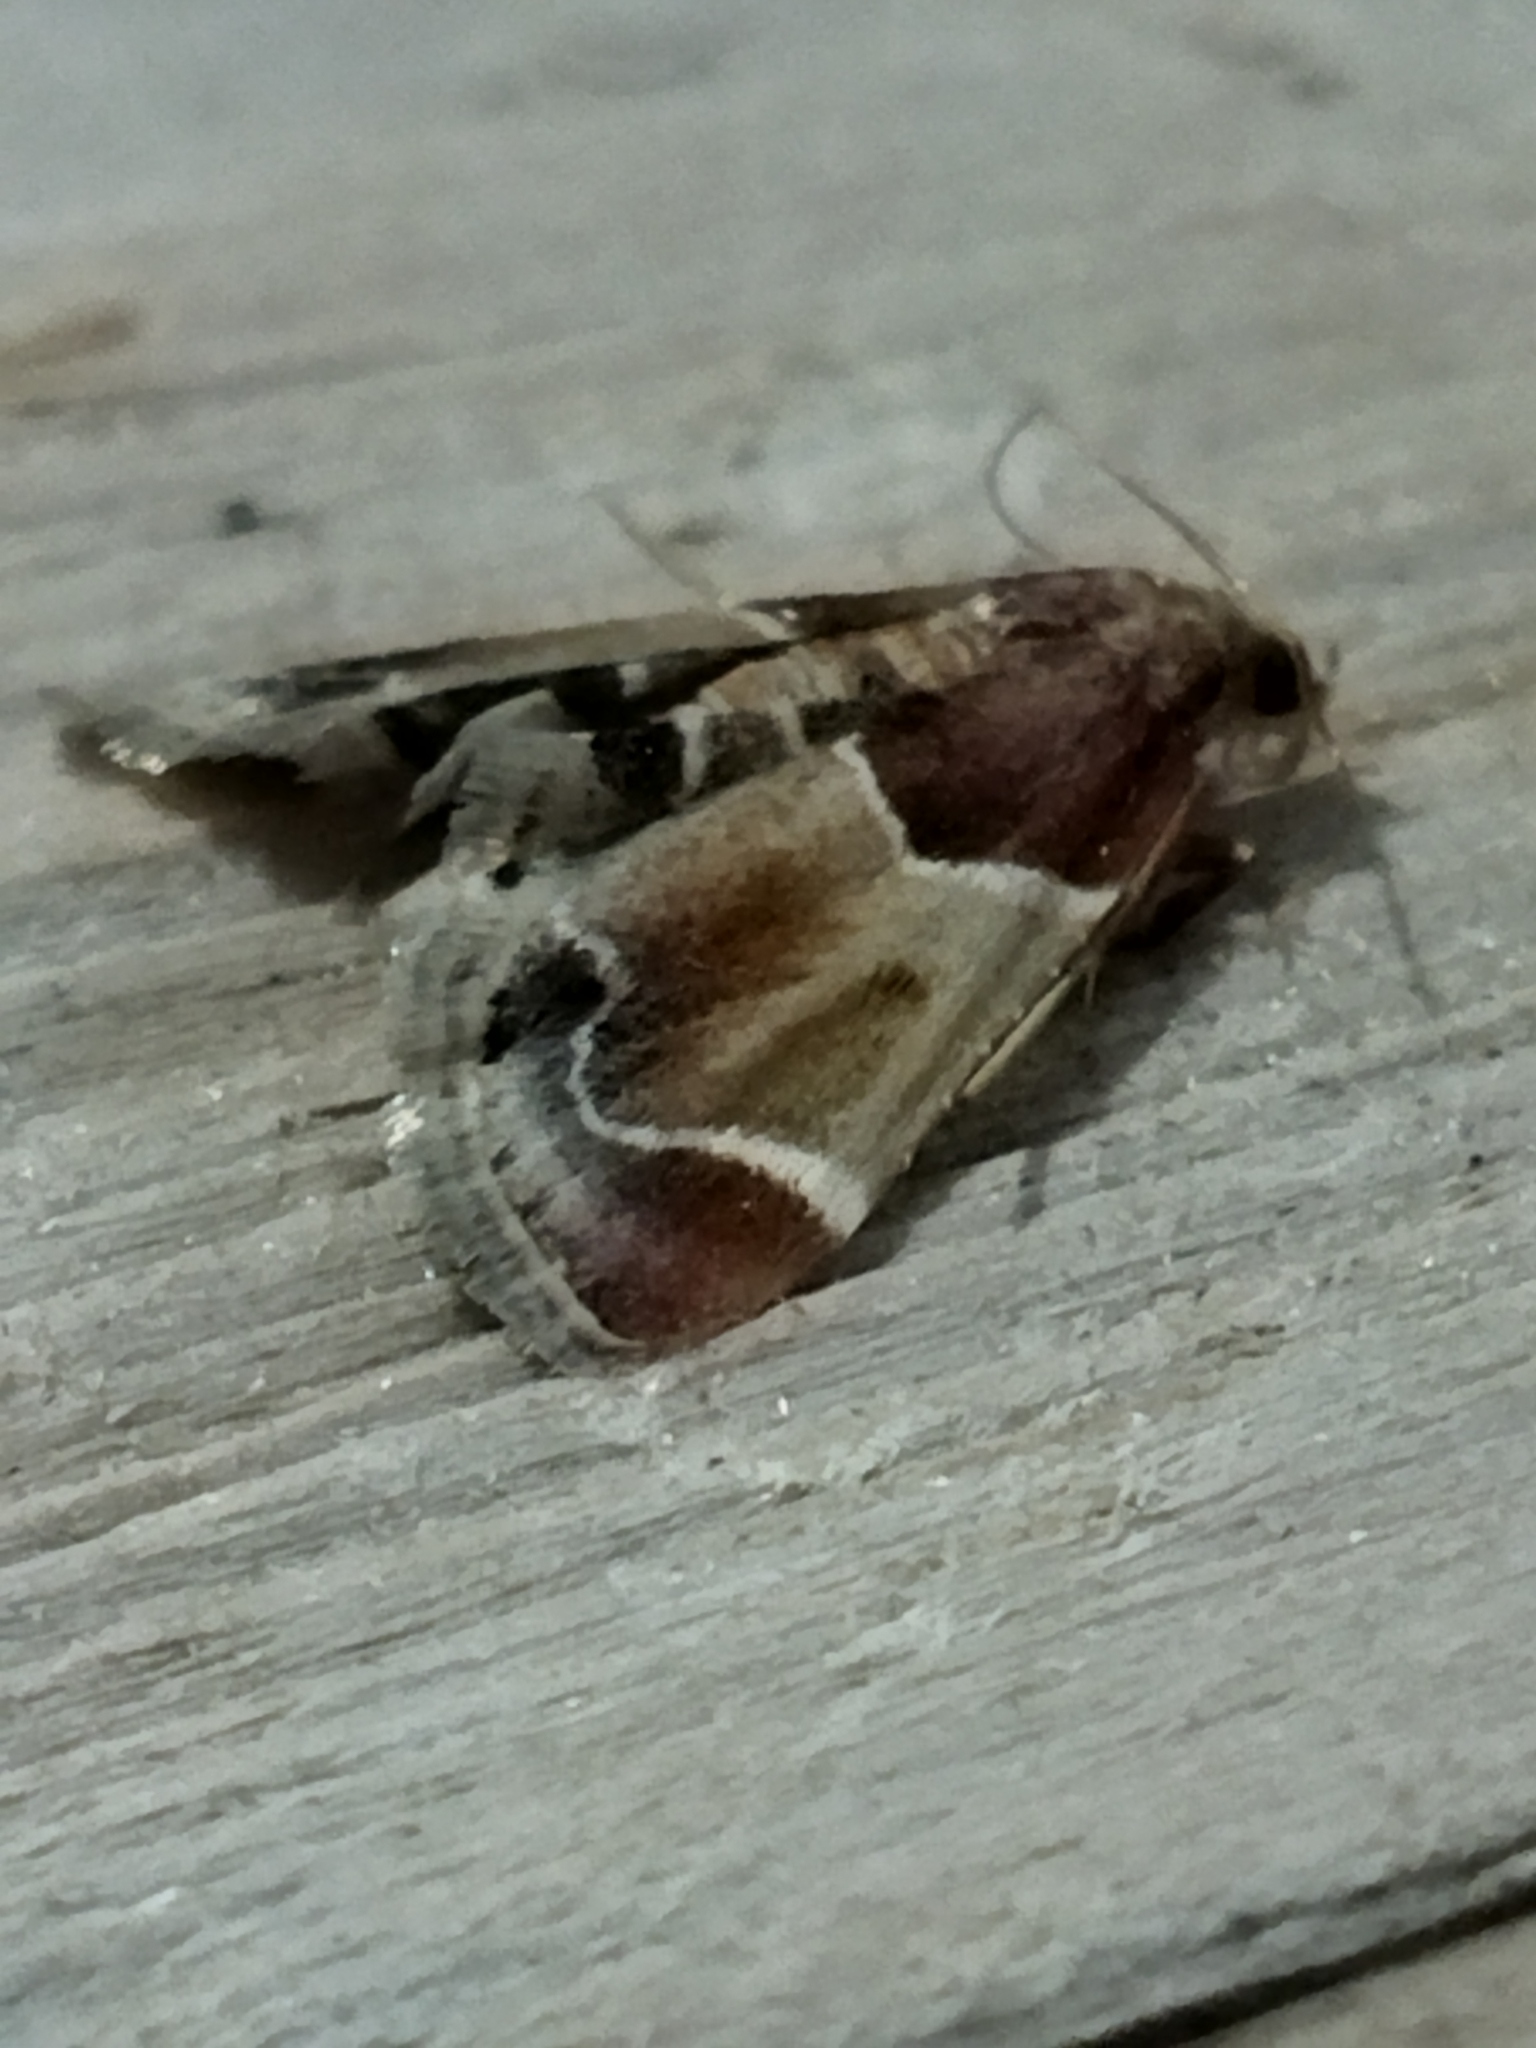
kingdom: Animalia
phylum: Arthropoda
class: Insecta
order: Lepidoptera
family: Pyralidae
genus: Pyralis
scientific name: Pyralis farinalis
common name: Meal moth
